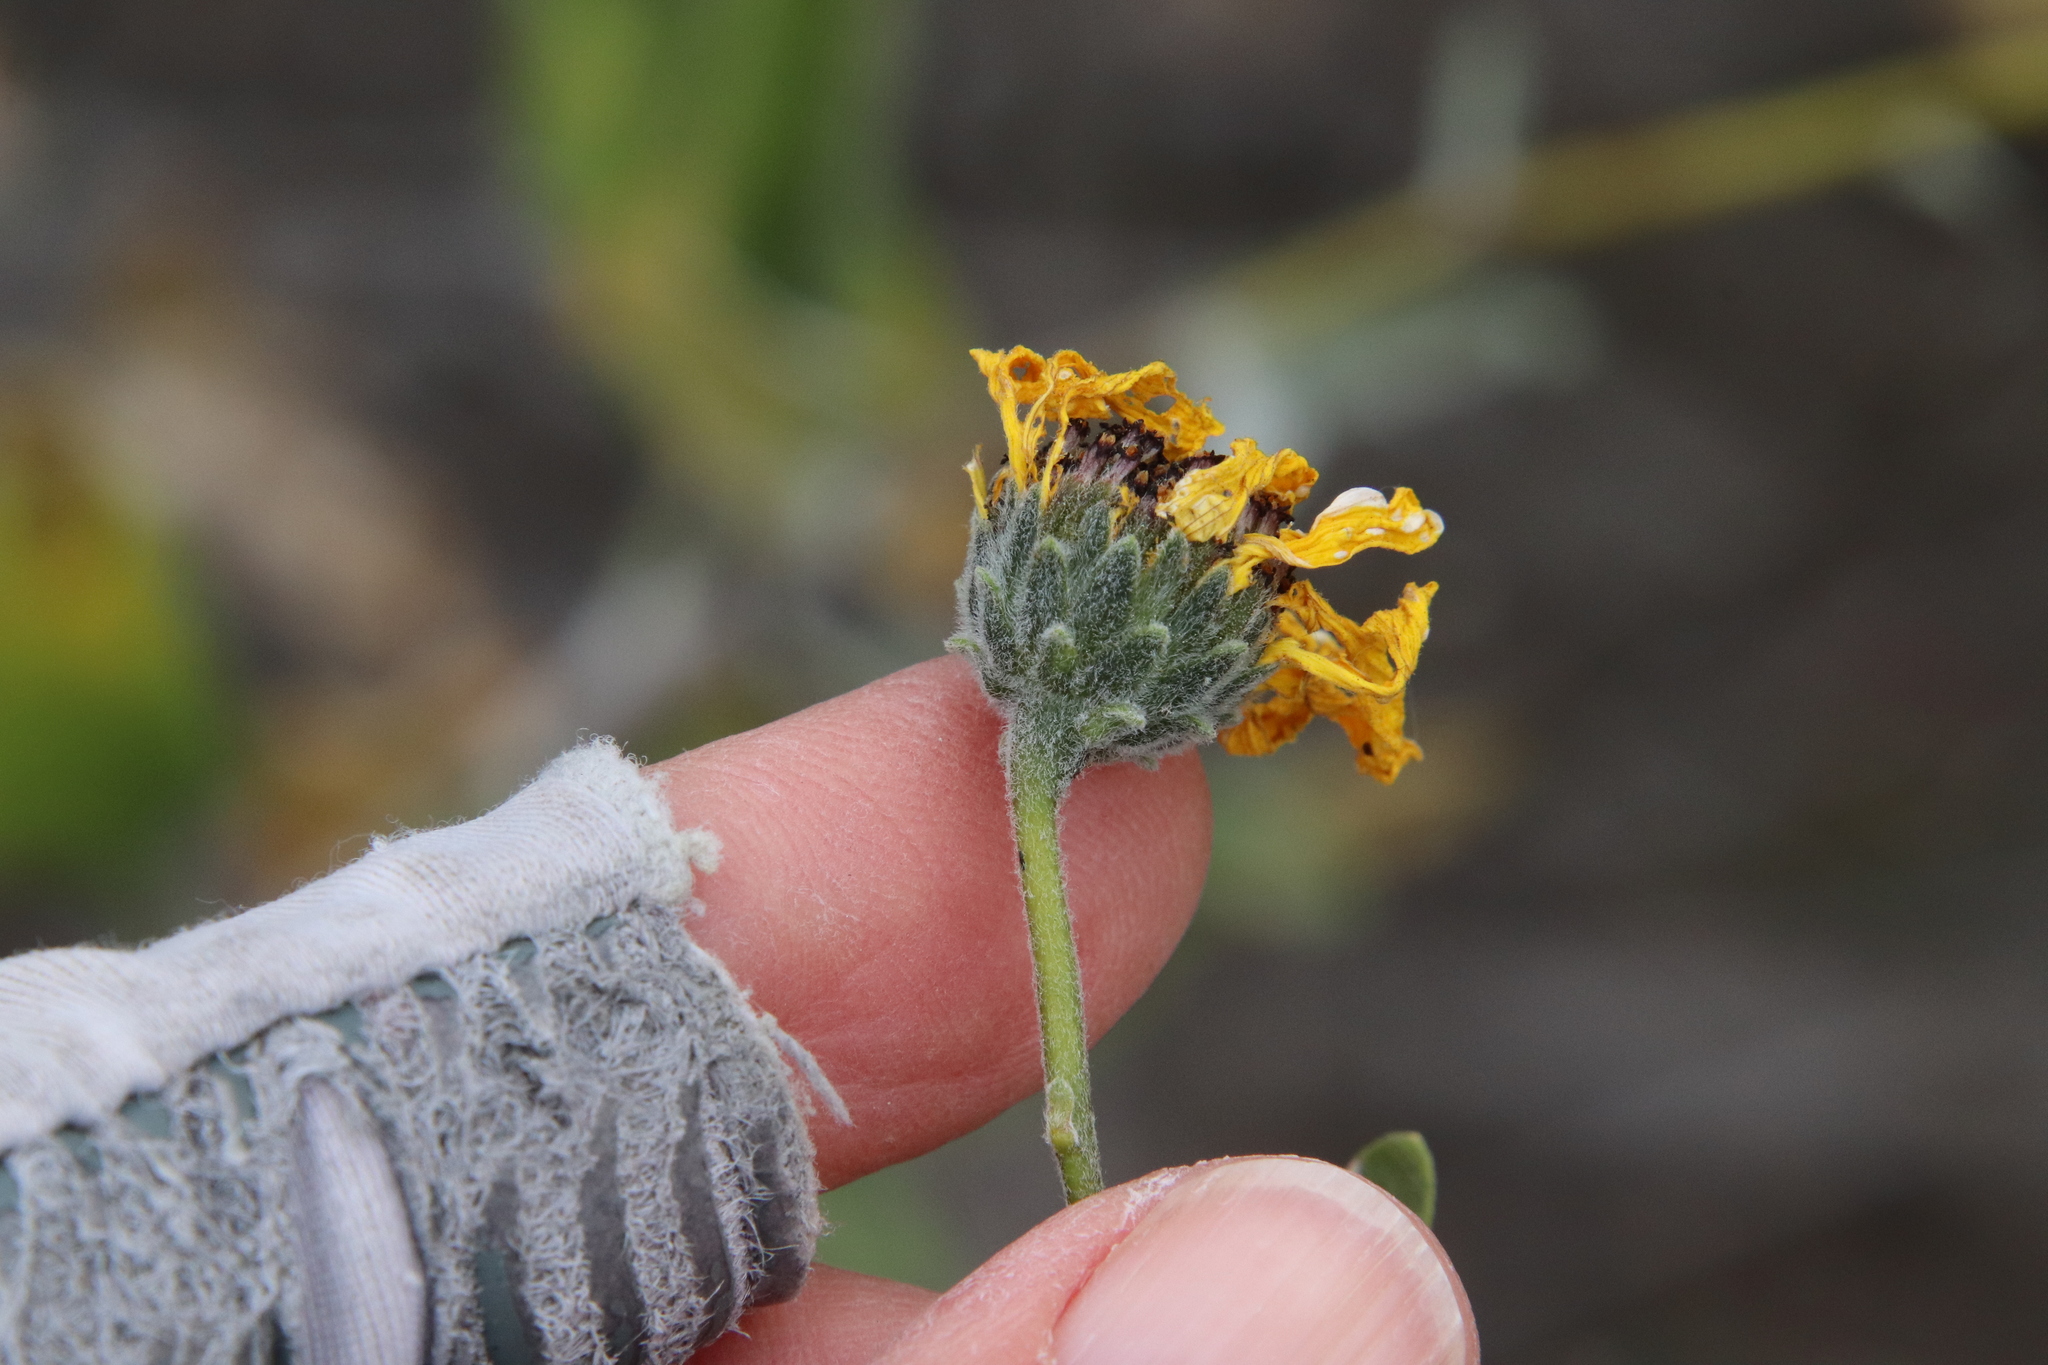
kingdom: Plantae
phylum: Tracheophyta
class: Magnoliopsida
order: Asterales
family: Asteraceae
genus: Encelia
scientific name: Encelia californica
